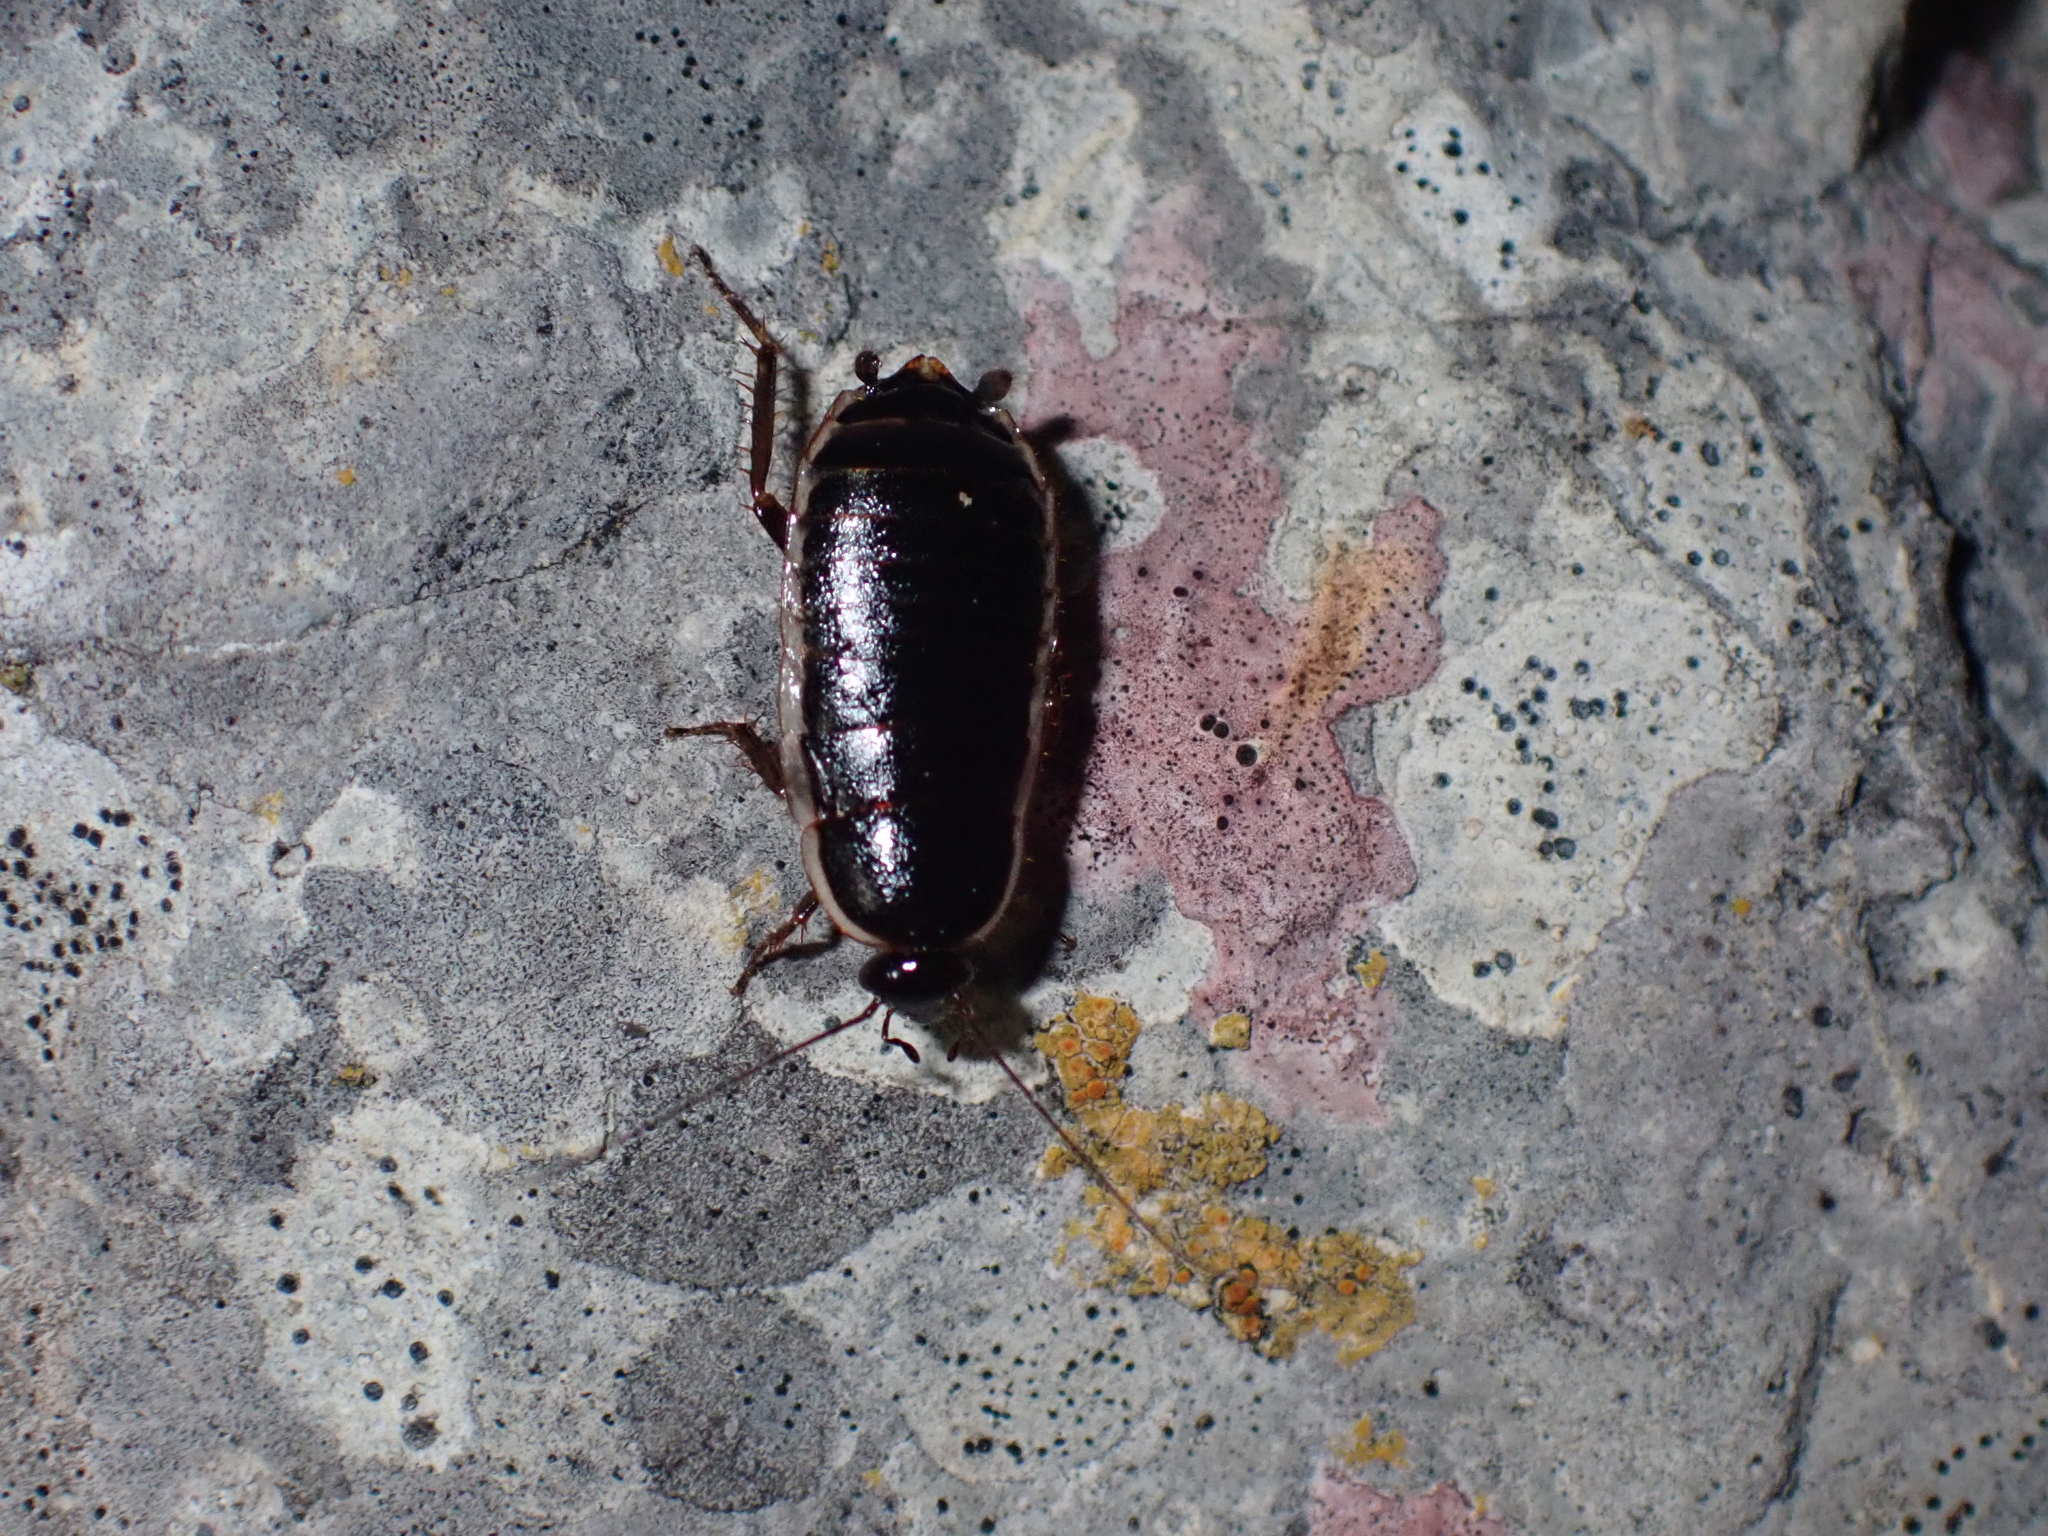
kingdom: Animalia
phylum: Arthropoda
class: Insecta
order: Blattodea
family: Ectobiidae
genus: Loboptera
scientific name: Loboptera decipiens
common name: Lobe-winged cockroach
